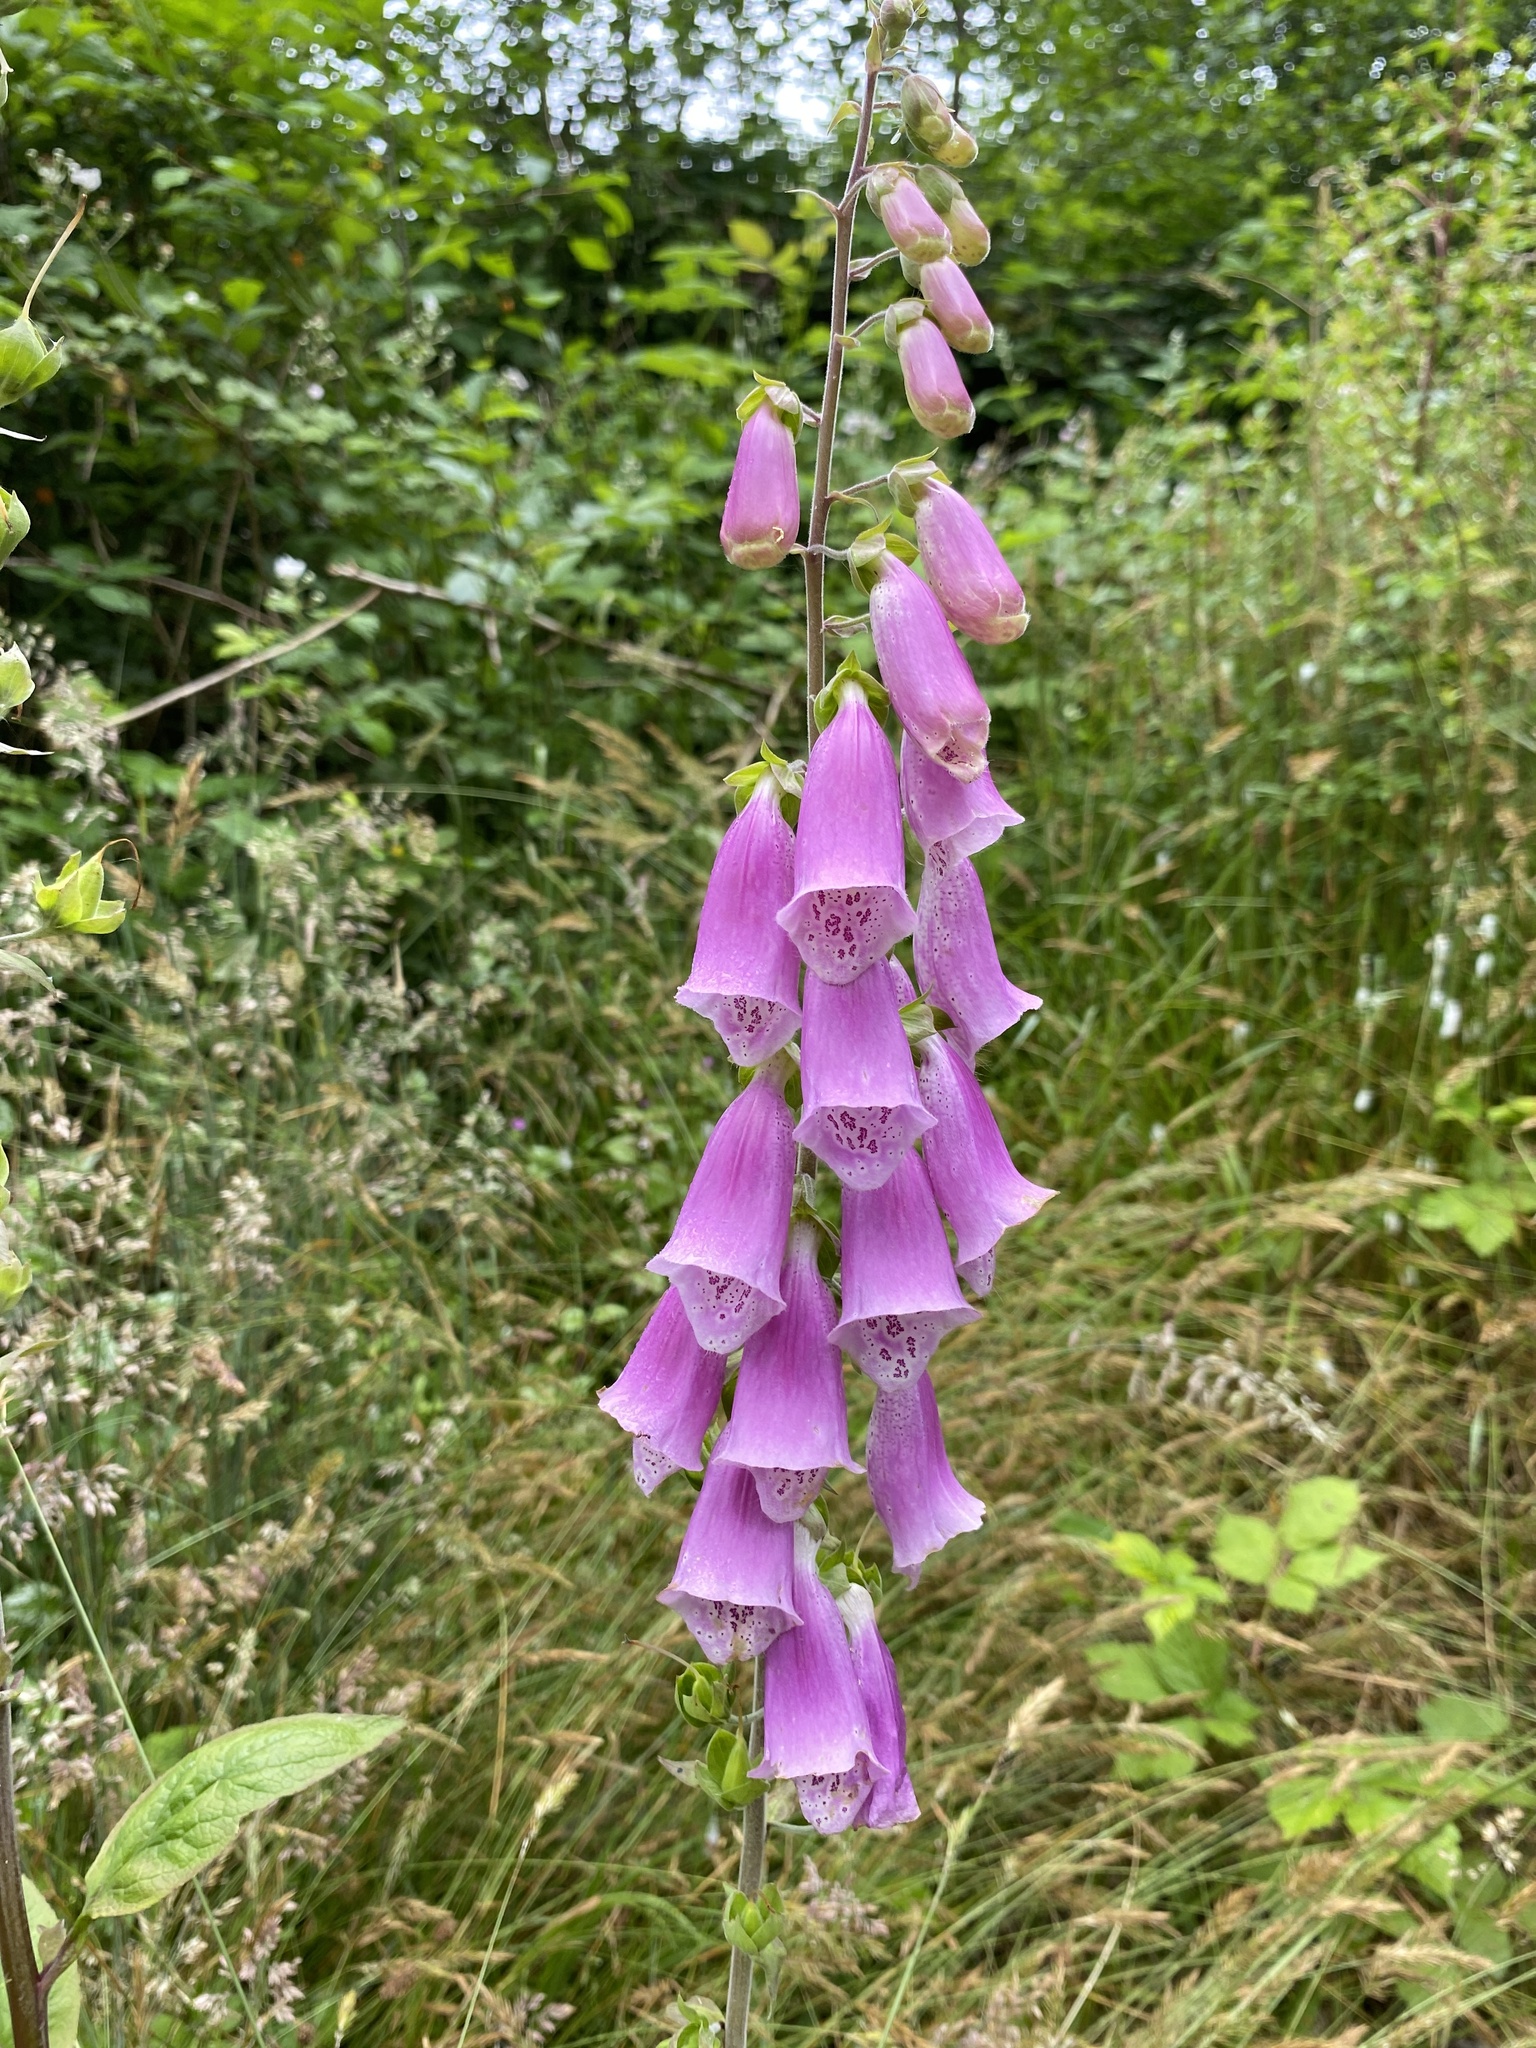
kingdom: Plantae
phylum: Tracheophyta
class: Magnoliopsida
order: Lamiales
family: Plantaginaceae
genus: Digitalis
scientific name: Digitalis purpurea
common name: Foxglove
